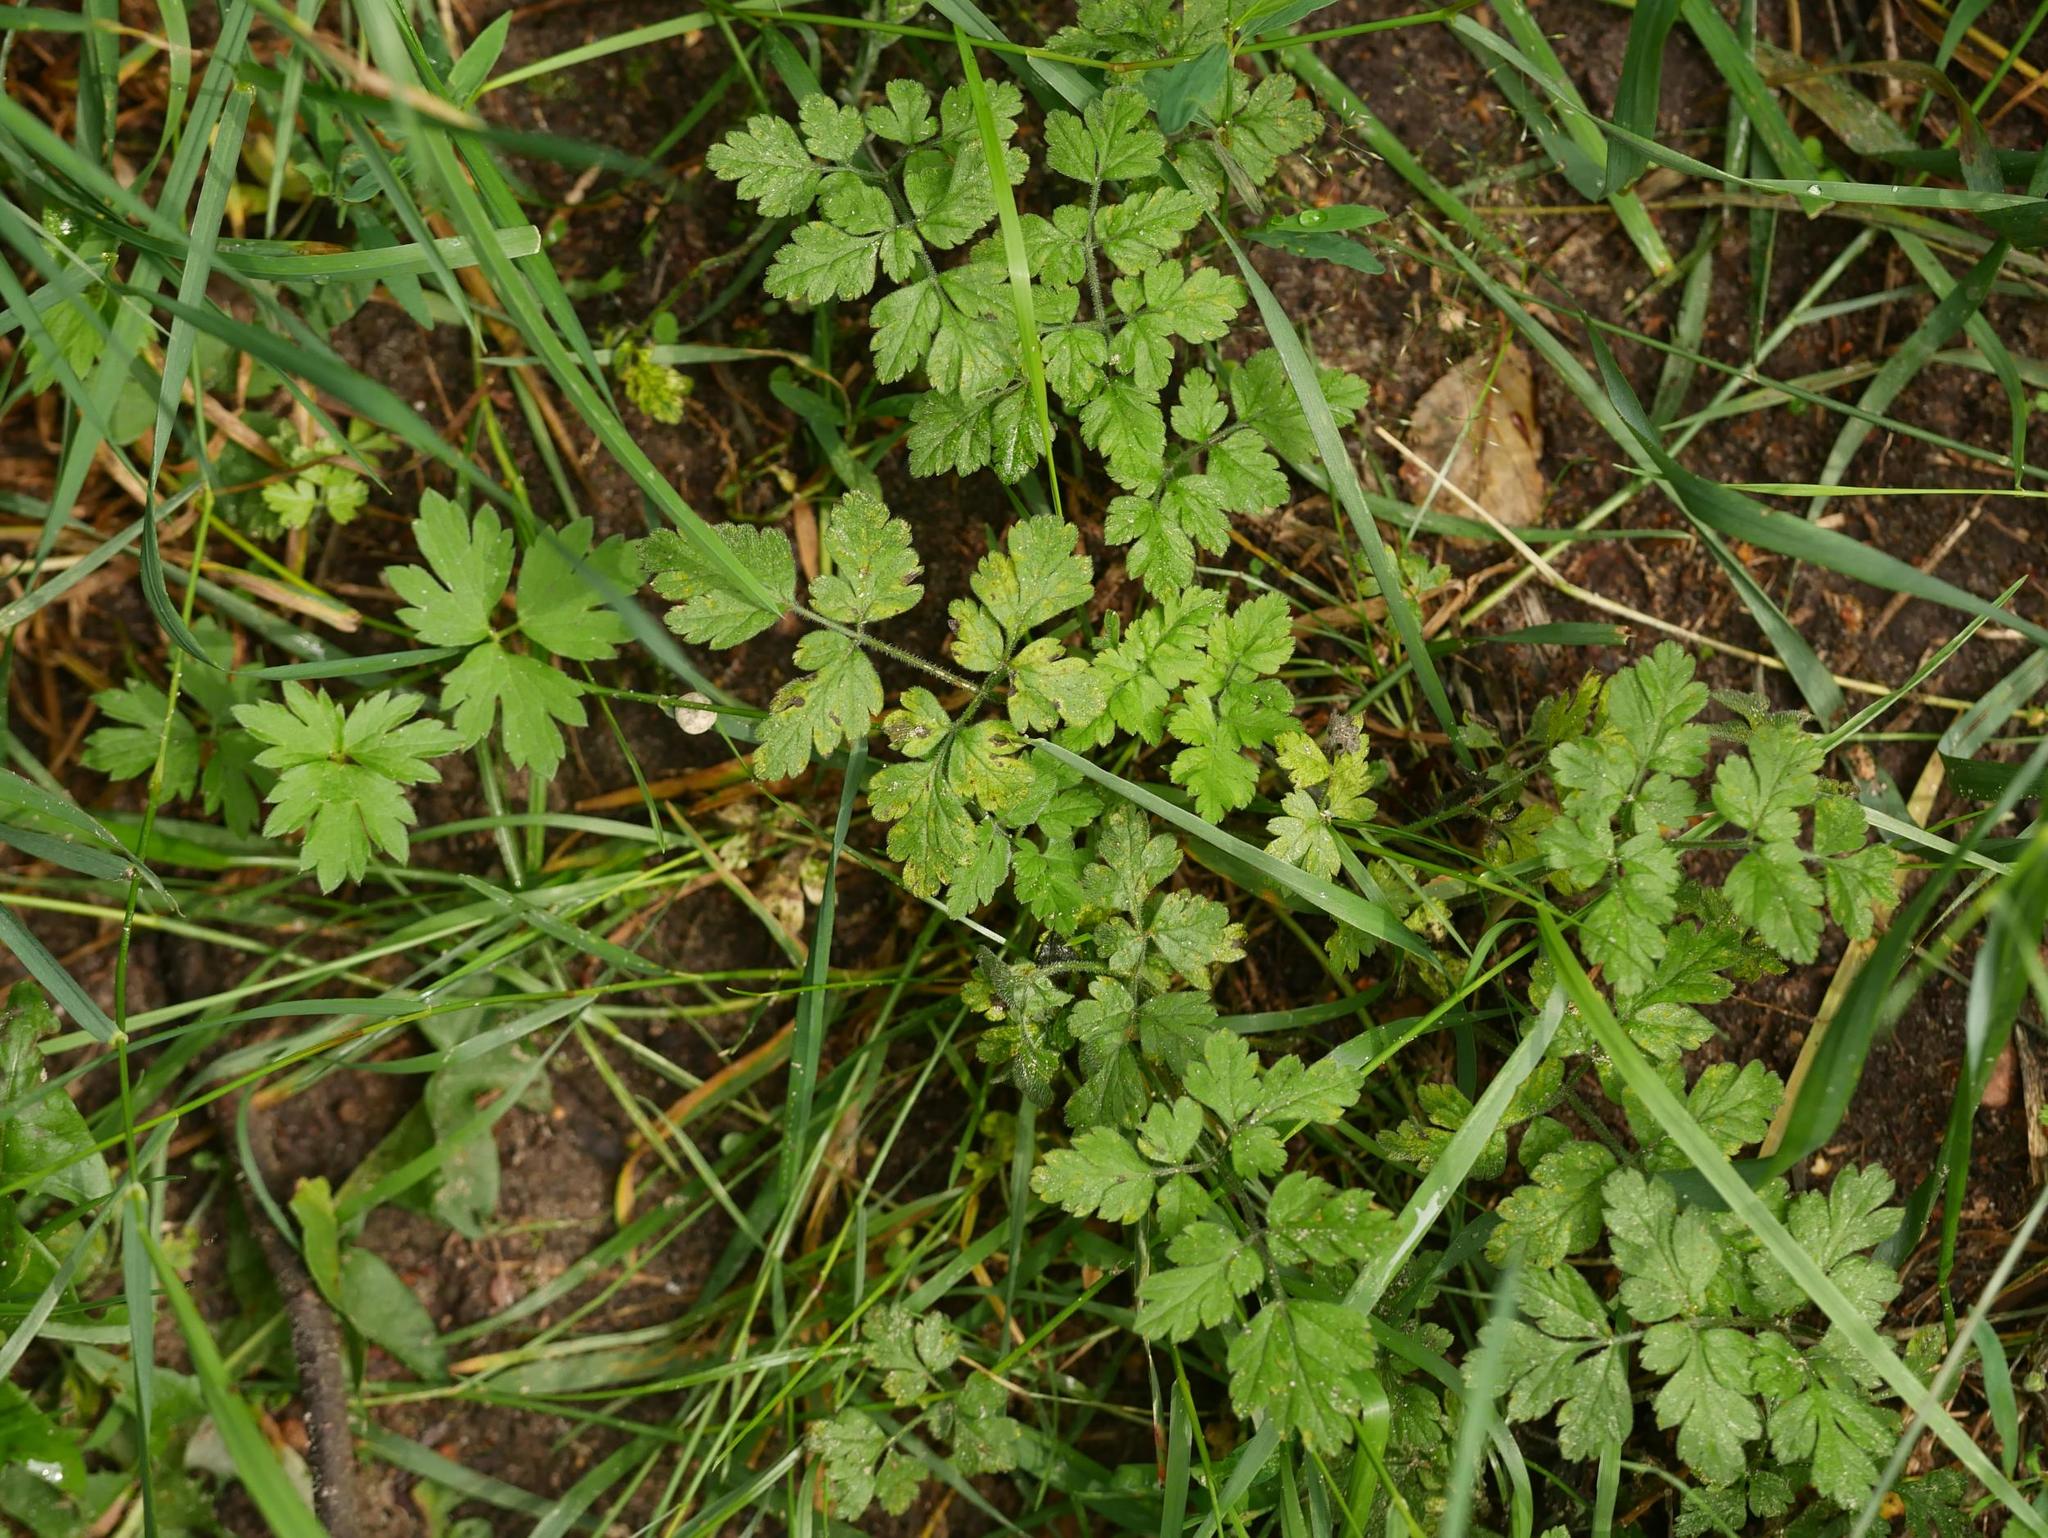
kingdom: Plantae
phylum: Tracheophyta
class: Magnoliopsida
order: Apiales
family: Apiaceae
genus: Chaerophyllum
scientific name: Chaerophyllum temulum
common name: Rough chervil
